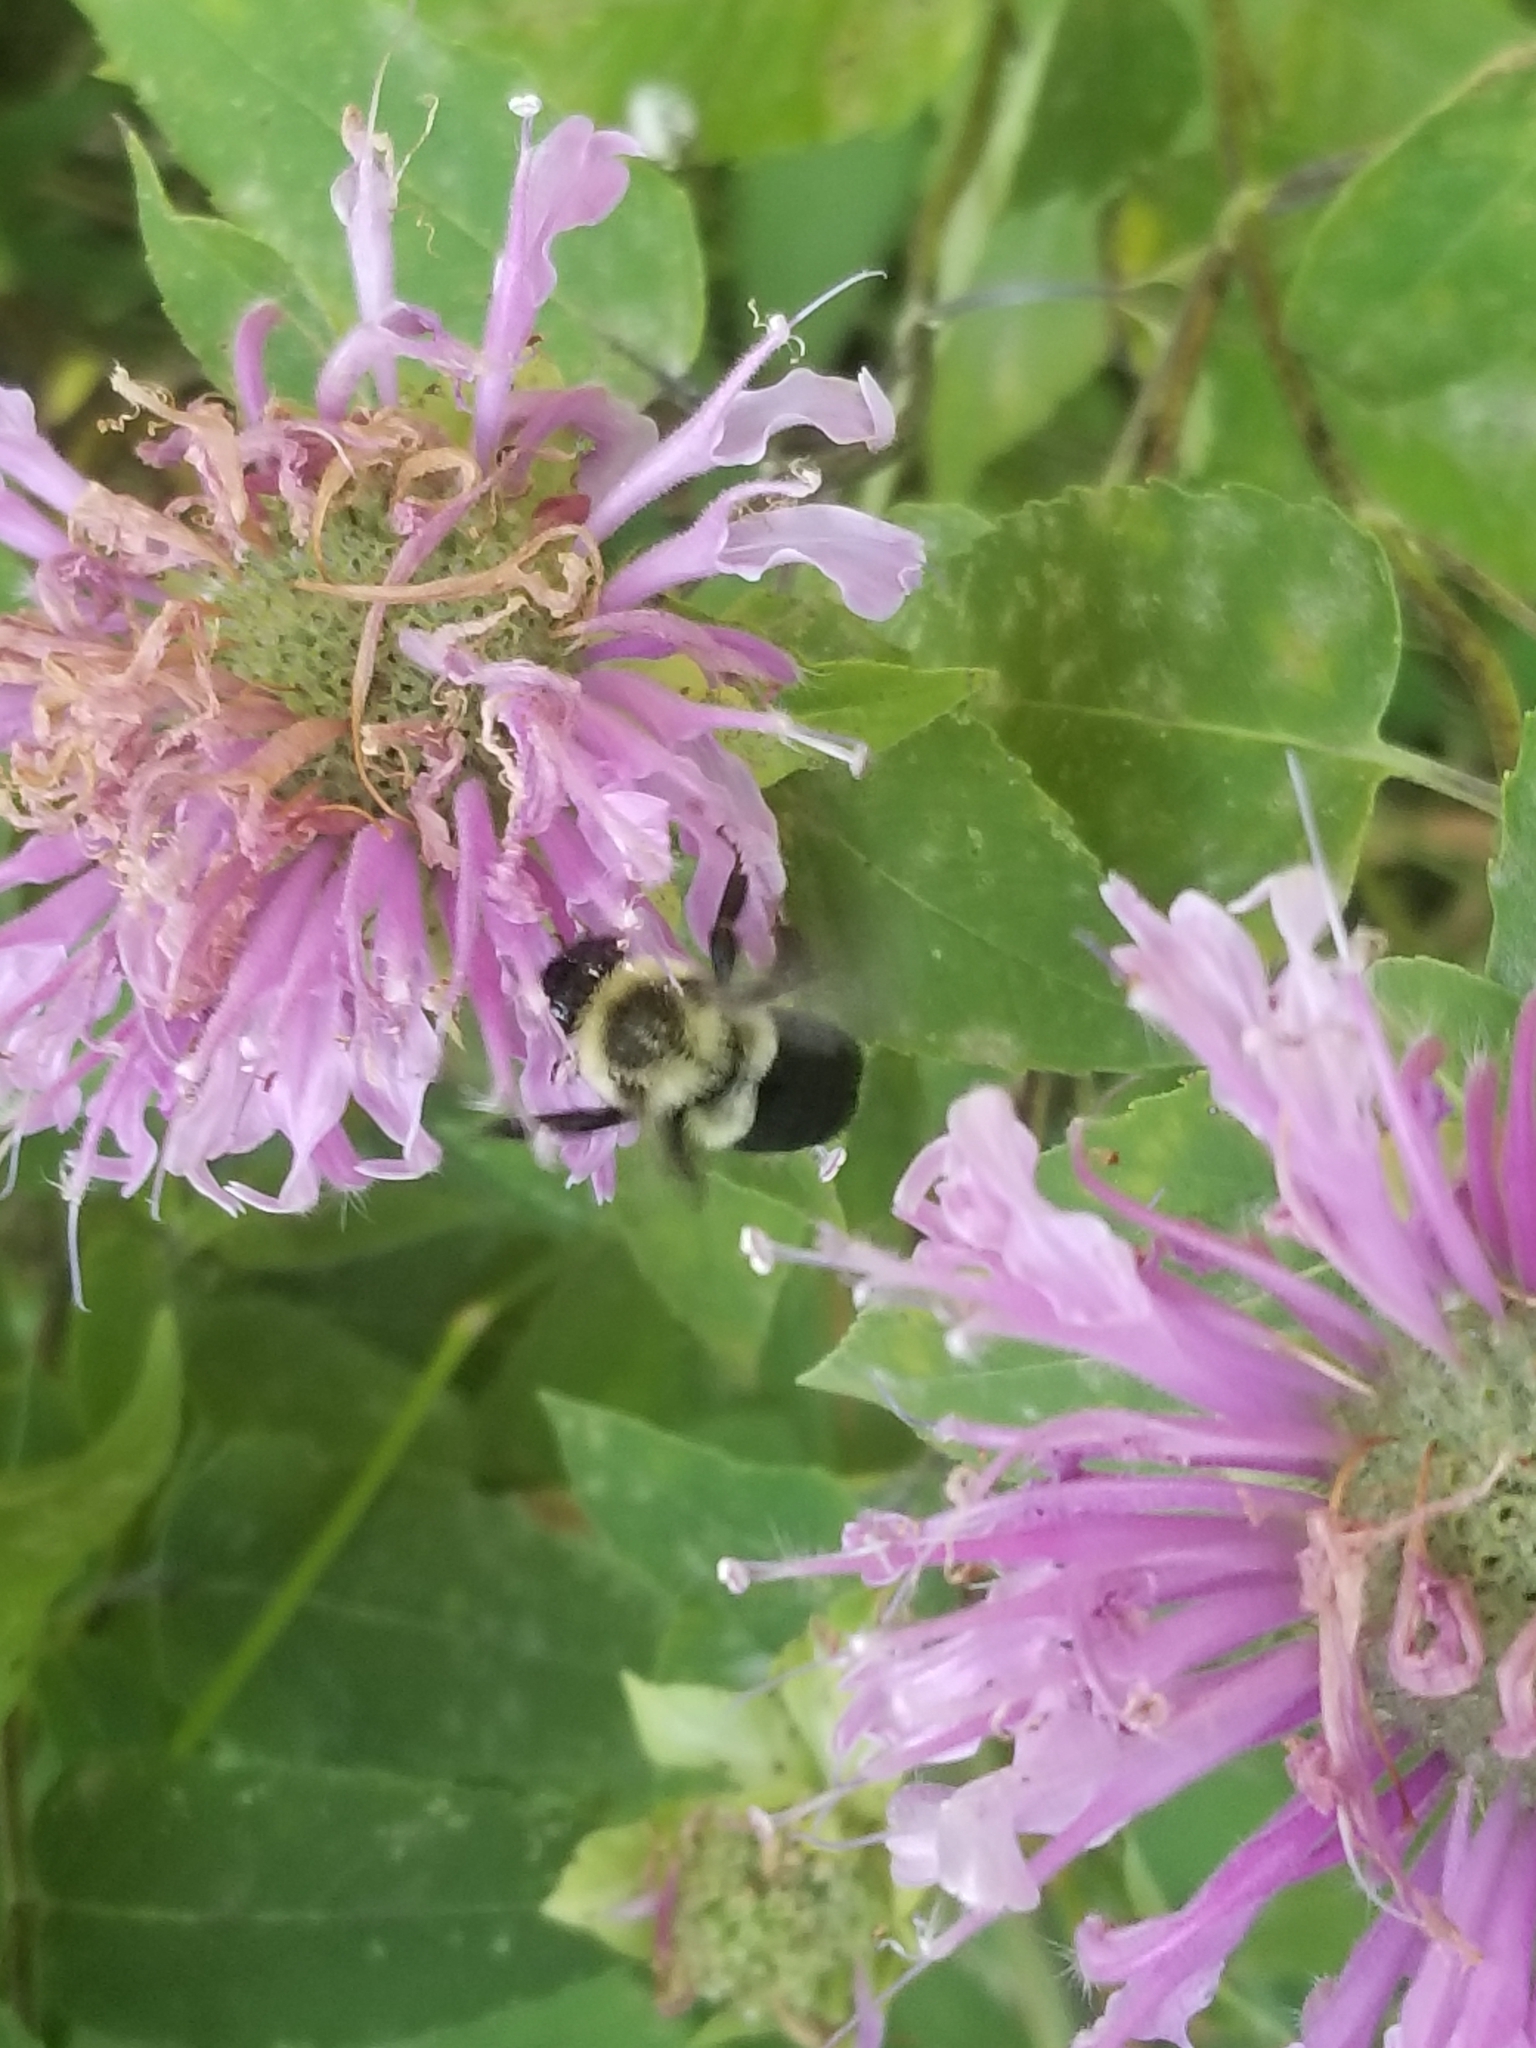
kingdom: Animalia
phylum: Arthropoda
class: Insecta
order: Hymenoptera
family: Apidae
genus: Bombus
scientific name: Bombus impatiens
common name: Common eastern bumble bee
